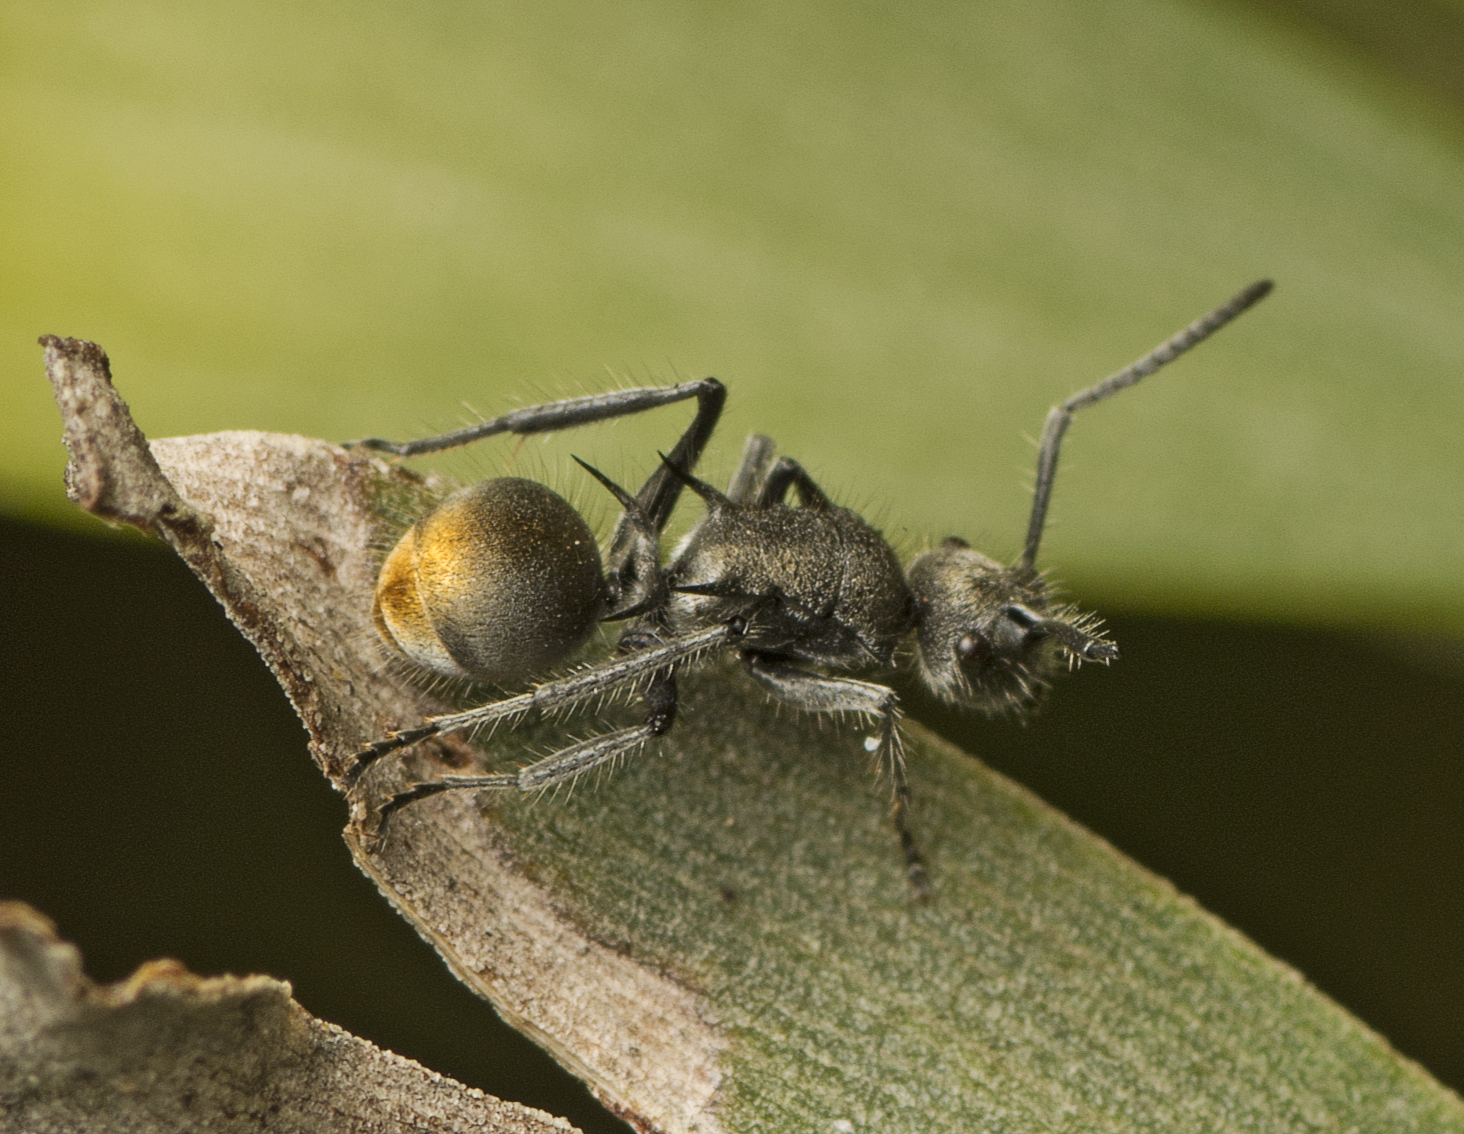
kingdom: Animalia
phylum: Arthropoda
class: Insecta
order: Hymenoptera
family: Formicidae
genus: Polyrhachis
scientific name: Polyrhachis vermiculosa
